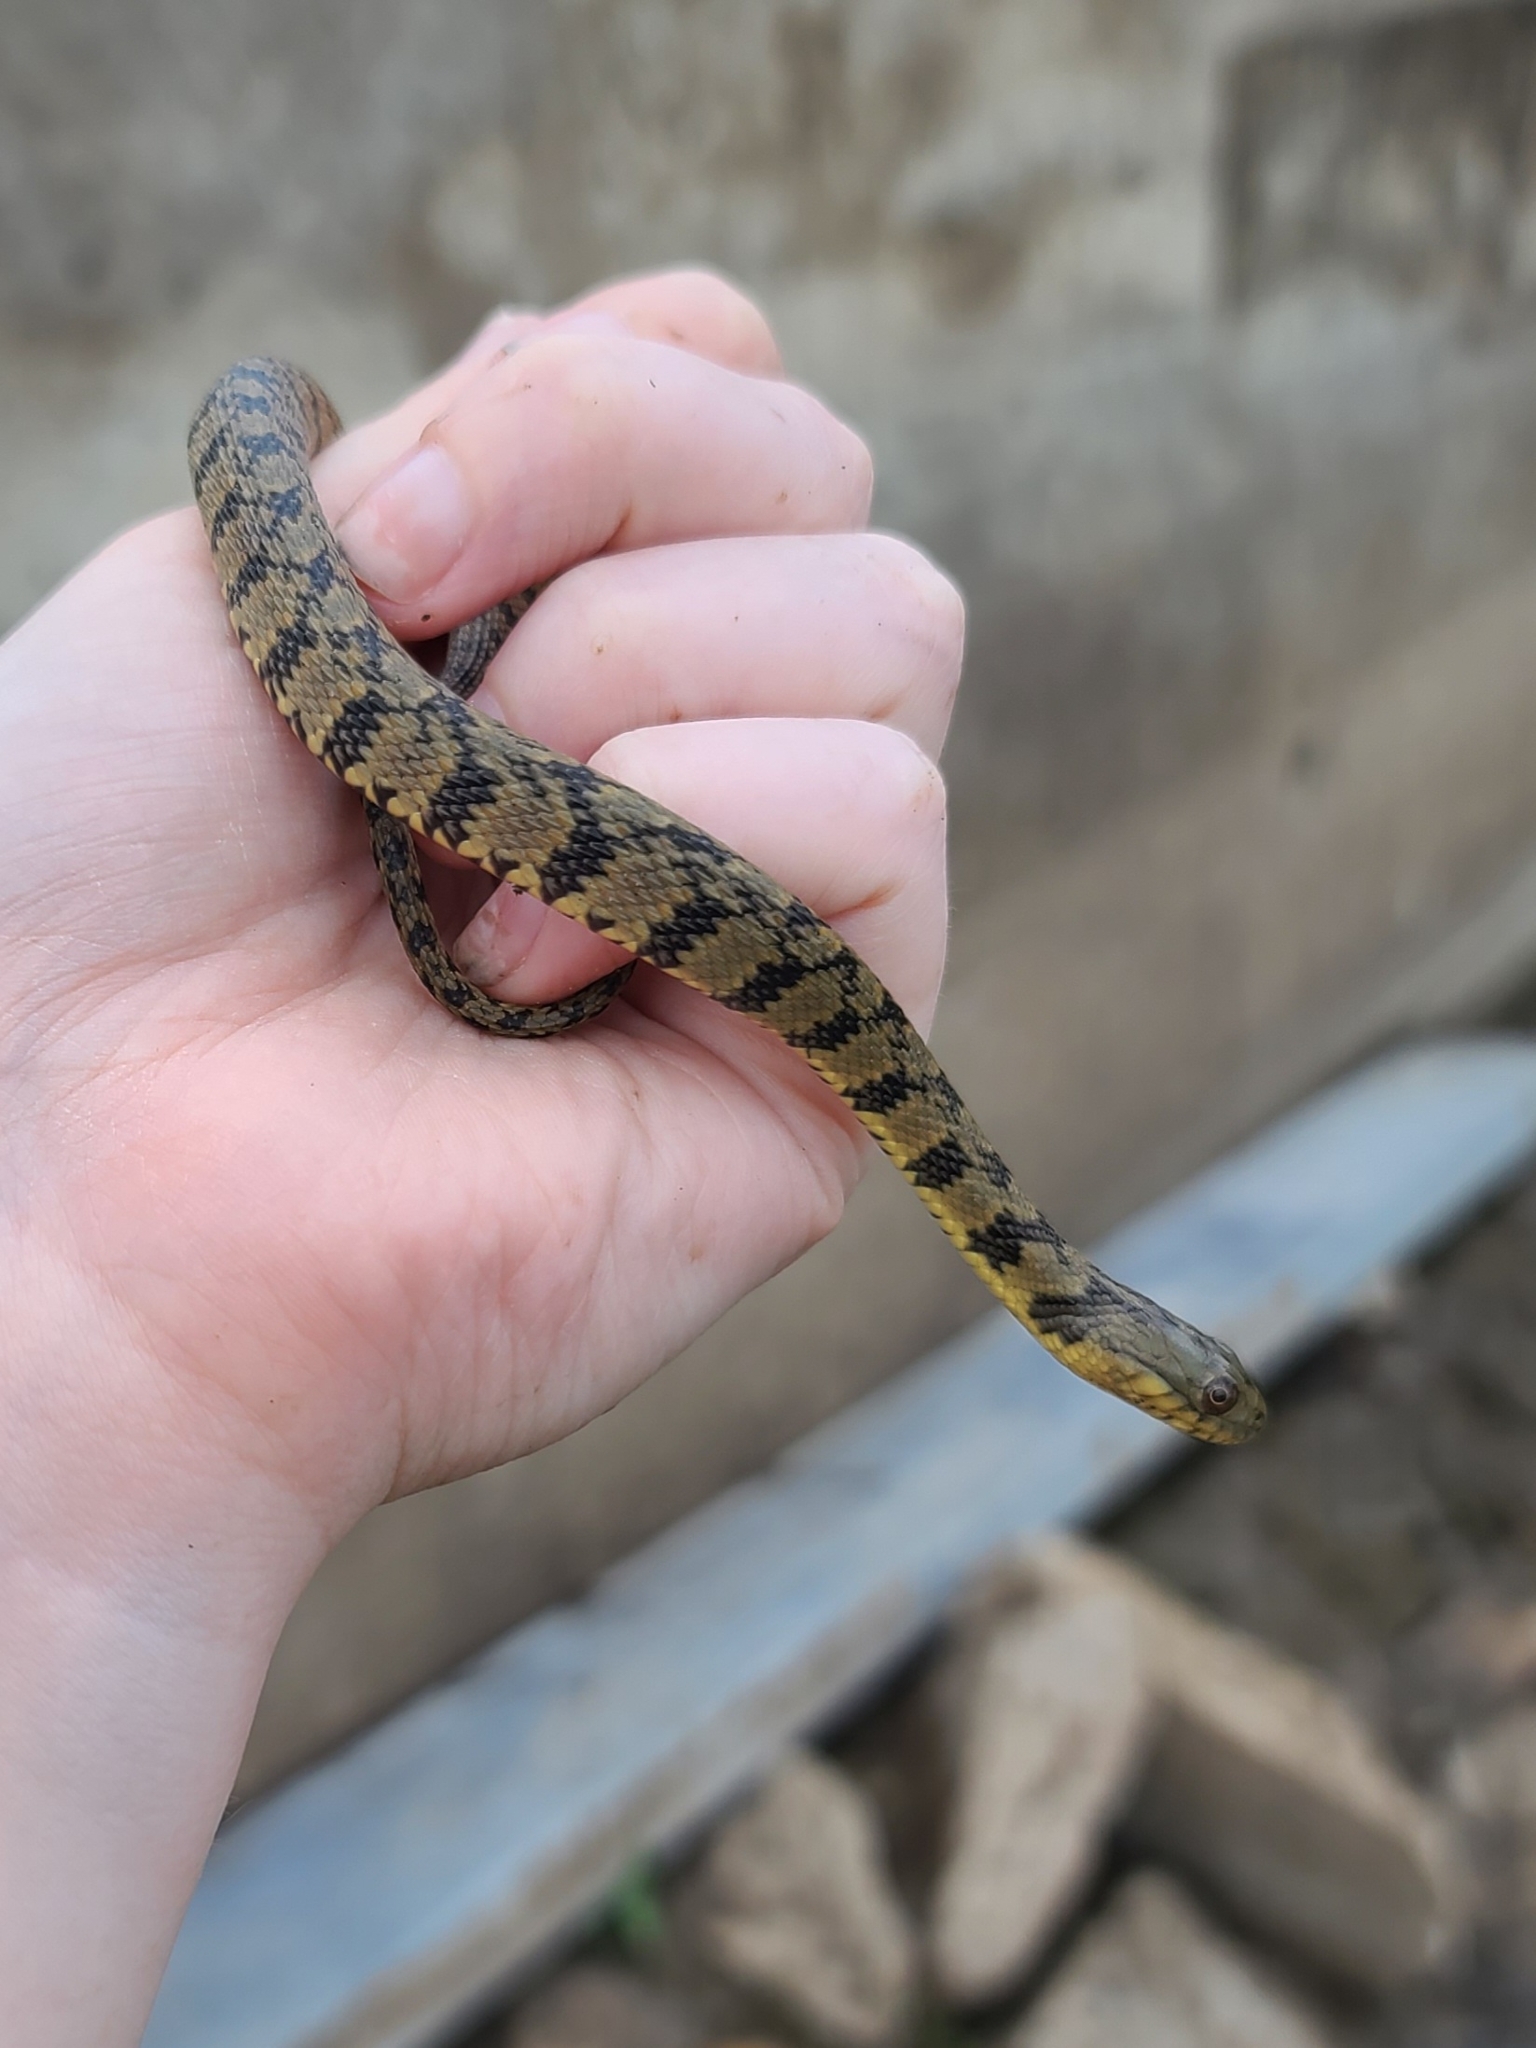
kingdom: Animalia
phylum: Chordata
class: Squamata
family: Colubridae
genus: Nerodia
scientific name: Nerodia rhombifer
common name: Diamondback water snake
